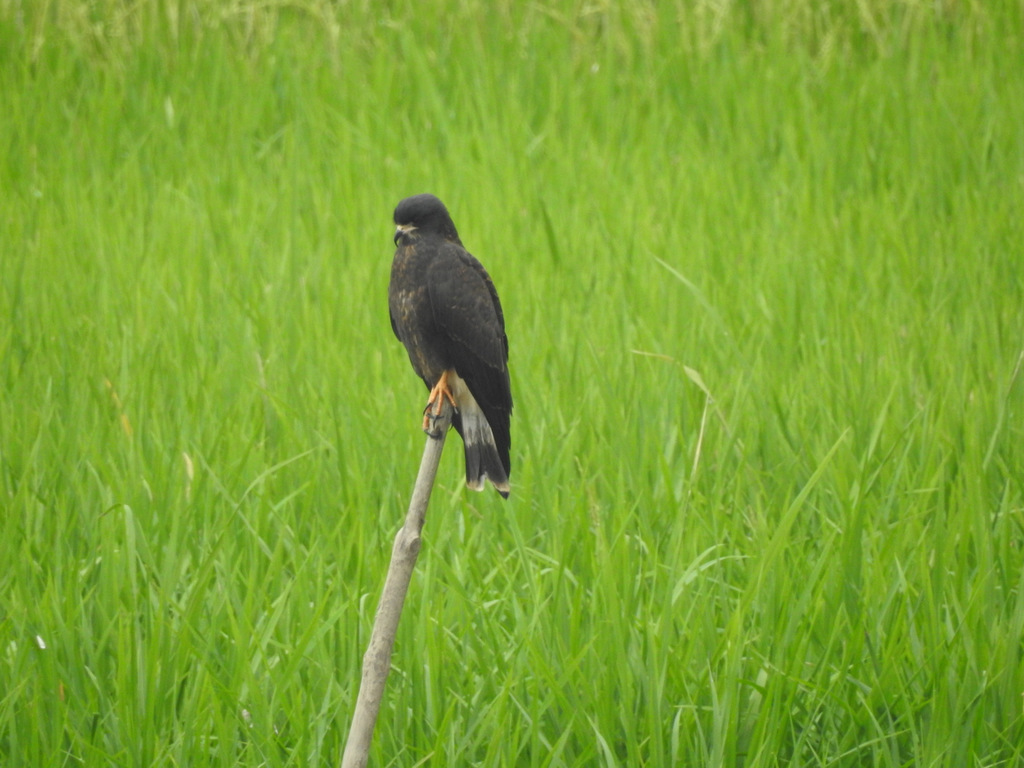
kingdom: Animalia
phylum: Chordata
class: Aves
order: Accipitriformes
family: Accipitridae
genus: Rostrhamus
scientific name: Rostrhamus sociabilis
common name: Snail kite
